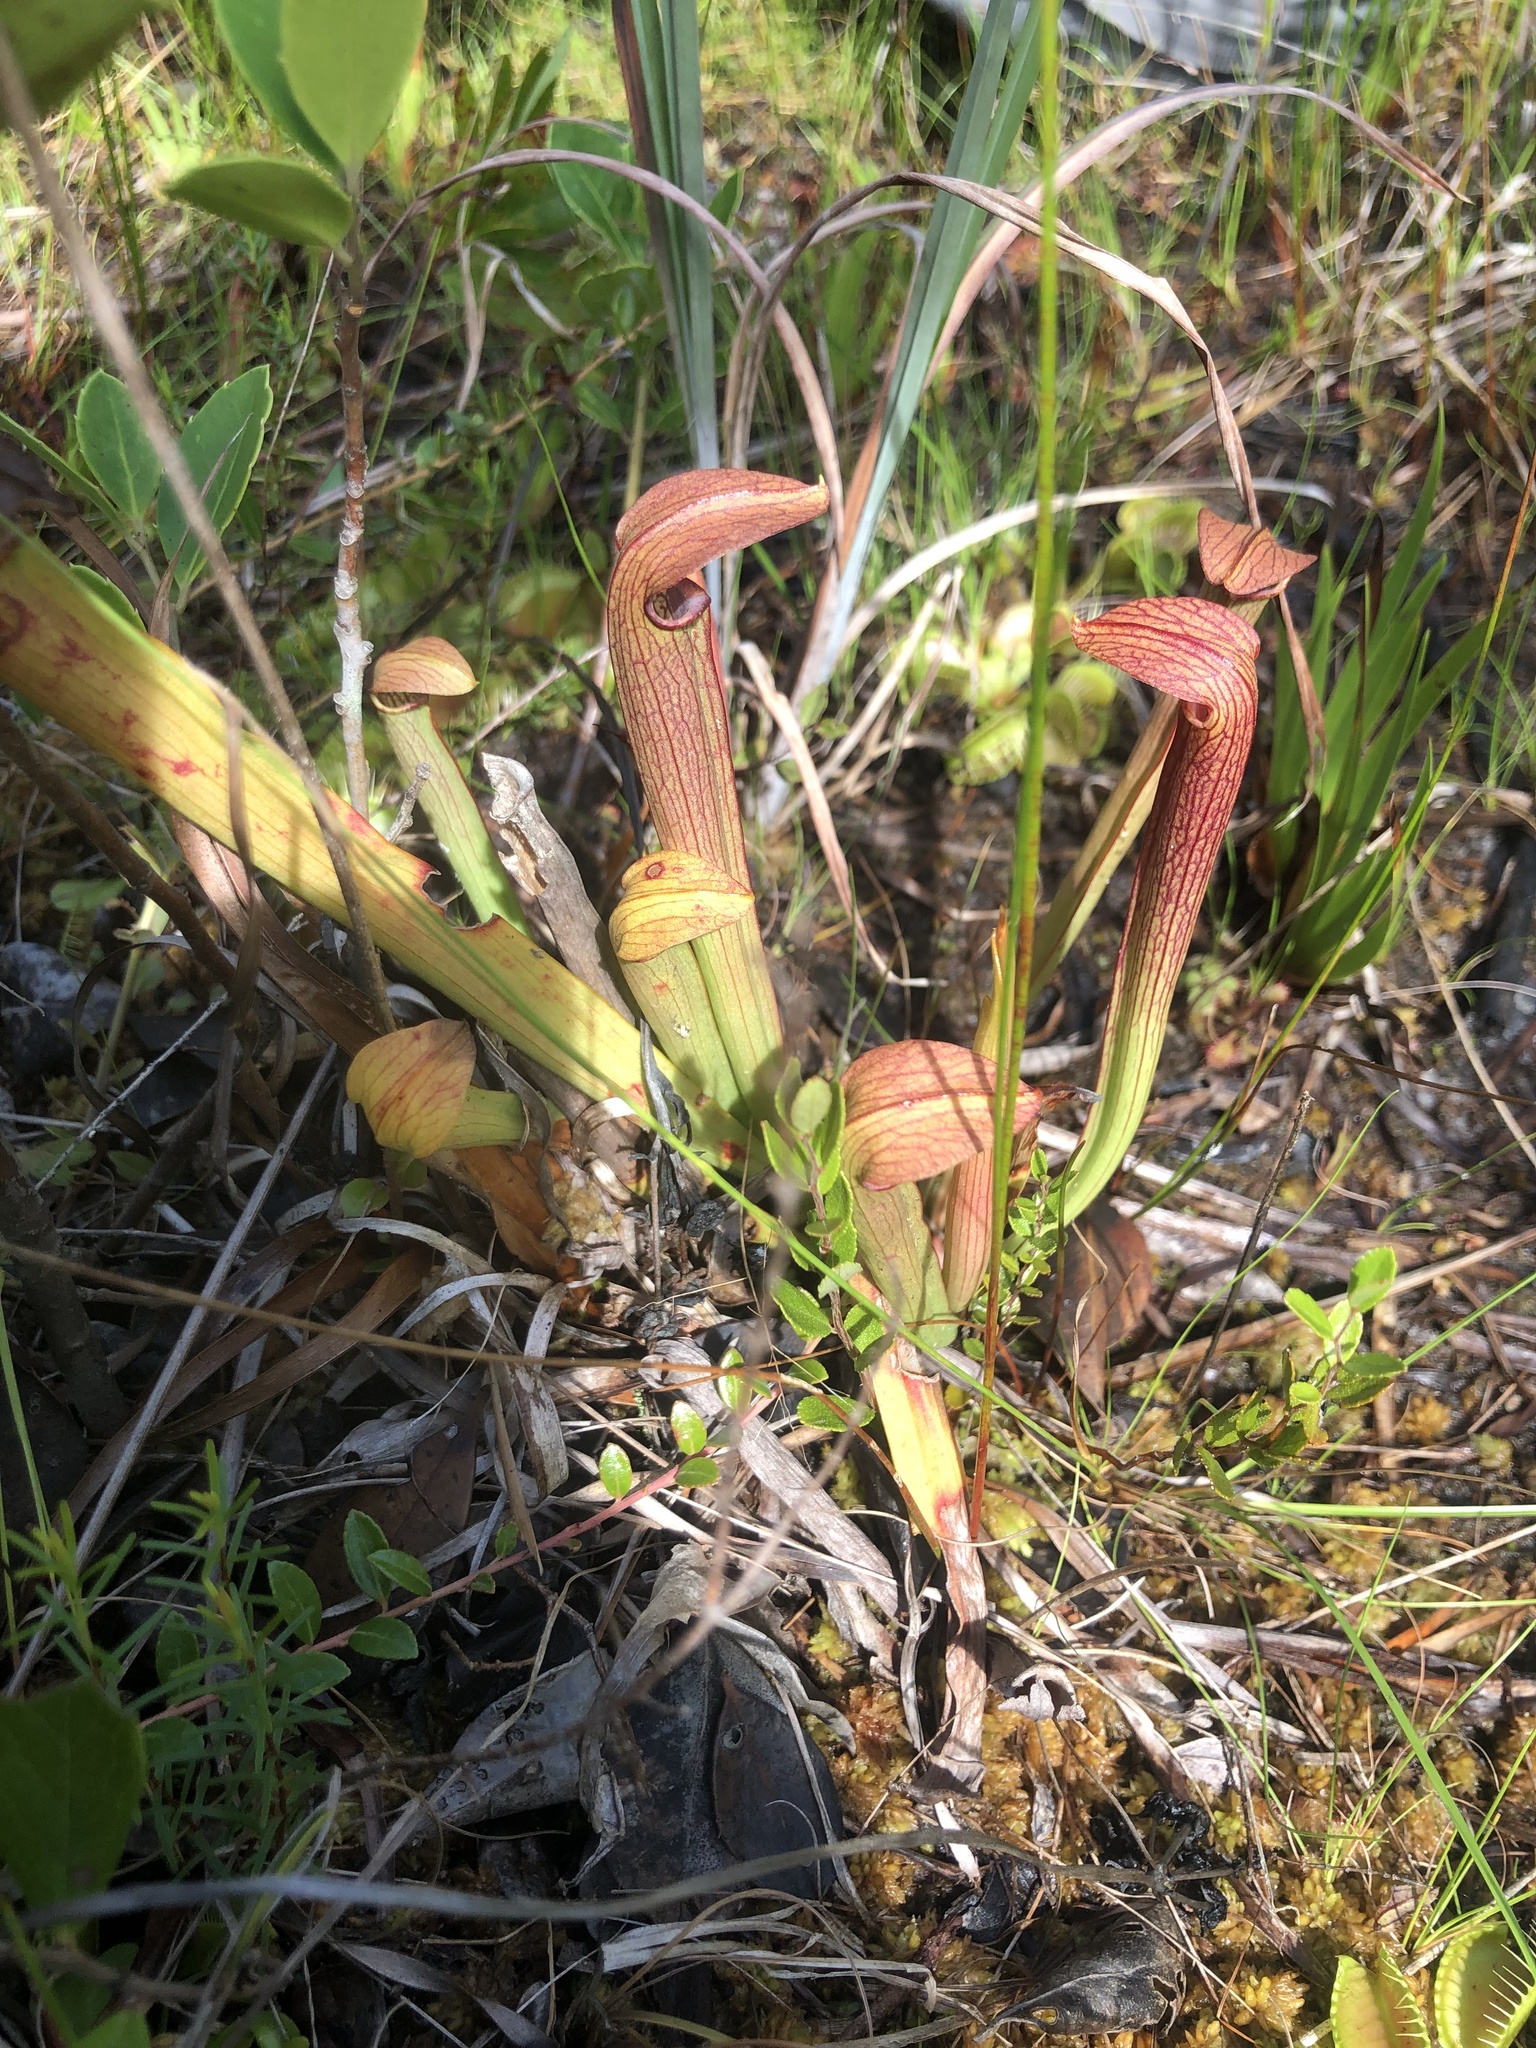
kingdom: Plantae
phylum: Tracheophyta
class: Magnoliopsida
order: Ericales
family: Sarraceniaceae
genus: Sarracenia
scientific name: Sarracenia rubra
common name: Sweet pitcherplant
